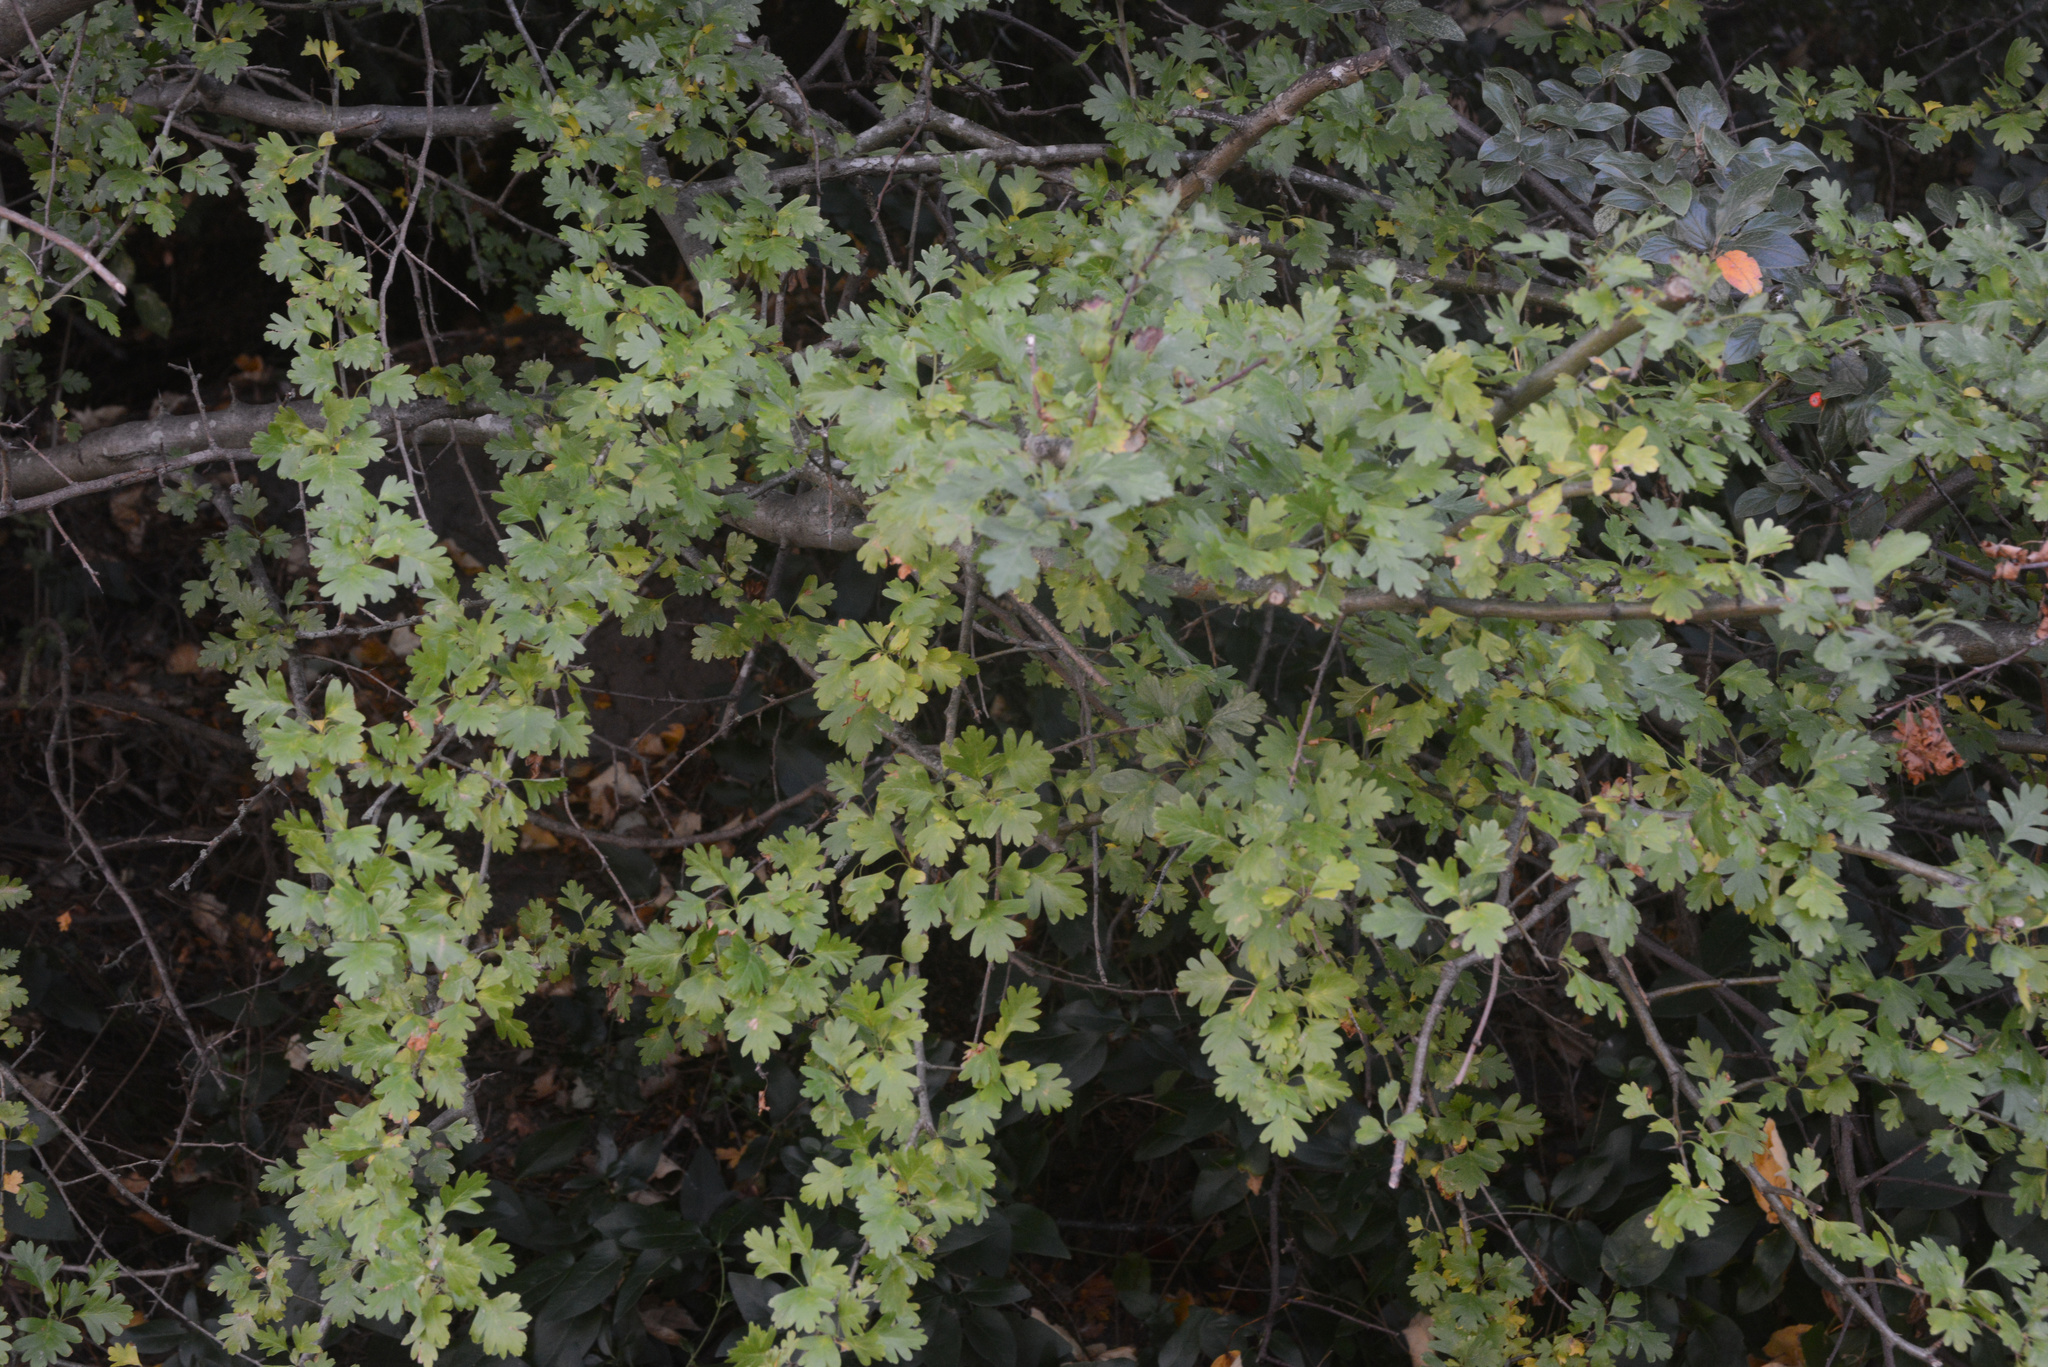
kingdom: Plantae
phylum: Tracheophyta
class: Magnoliopsida
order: Rosales
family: Rosaceae
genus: Crataegus
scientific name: Crataegus monogyna
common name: Hawthorn
